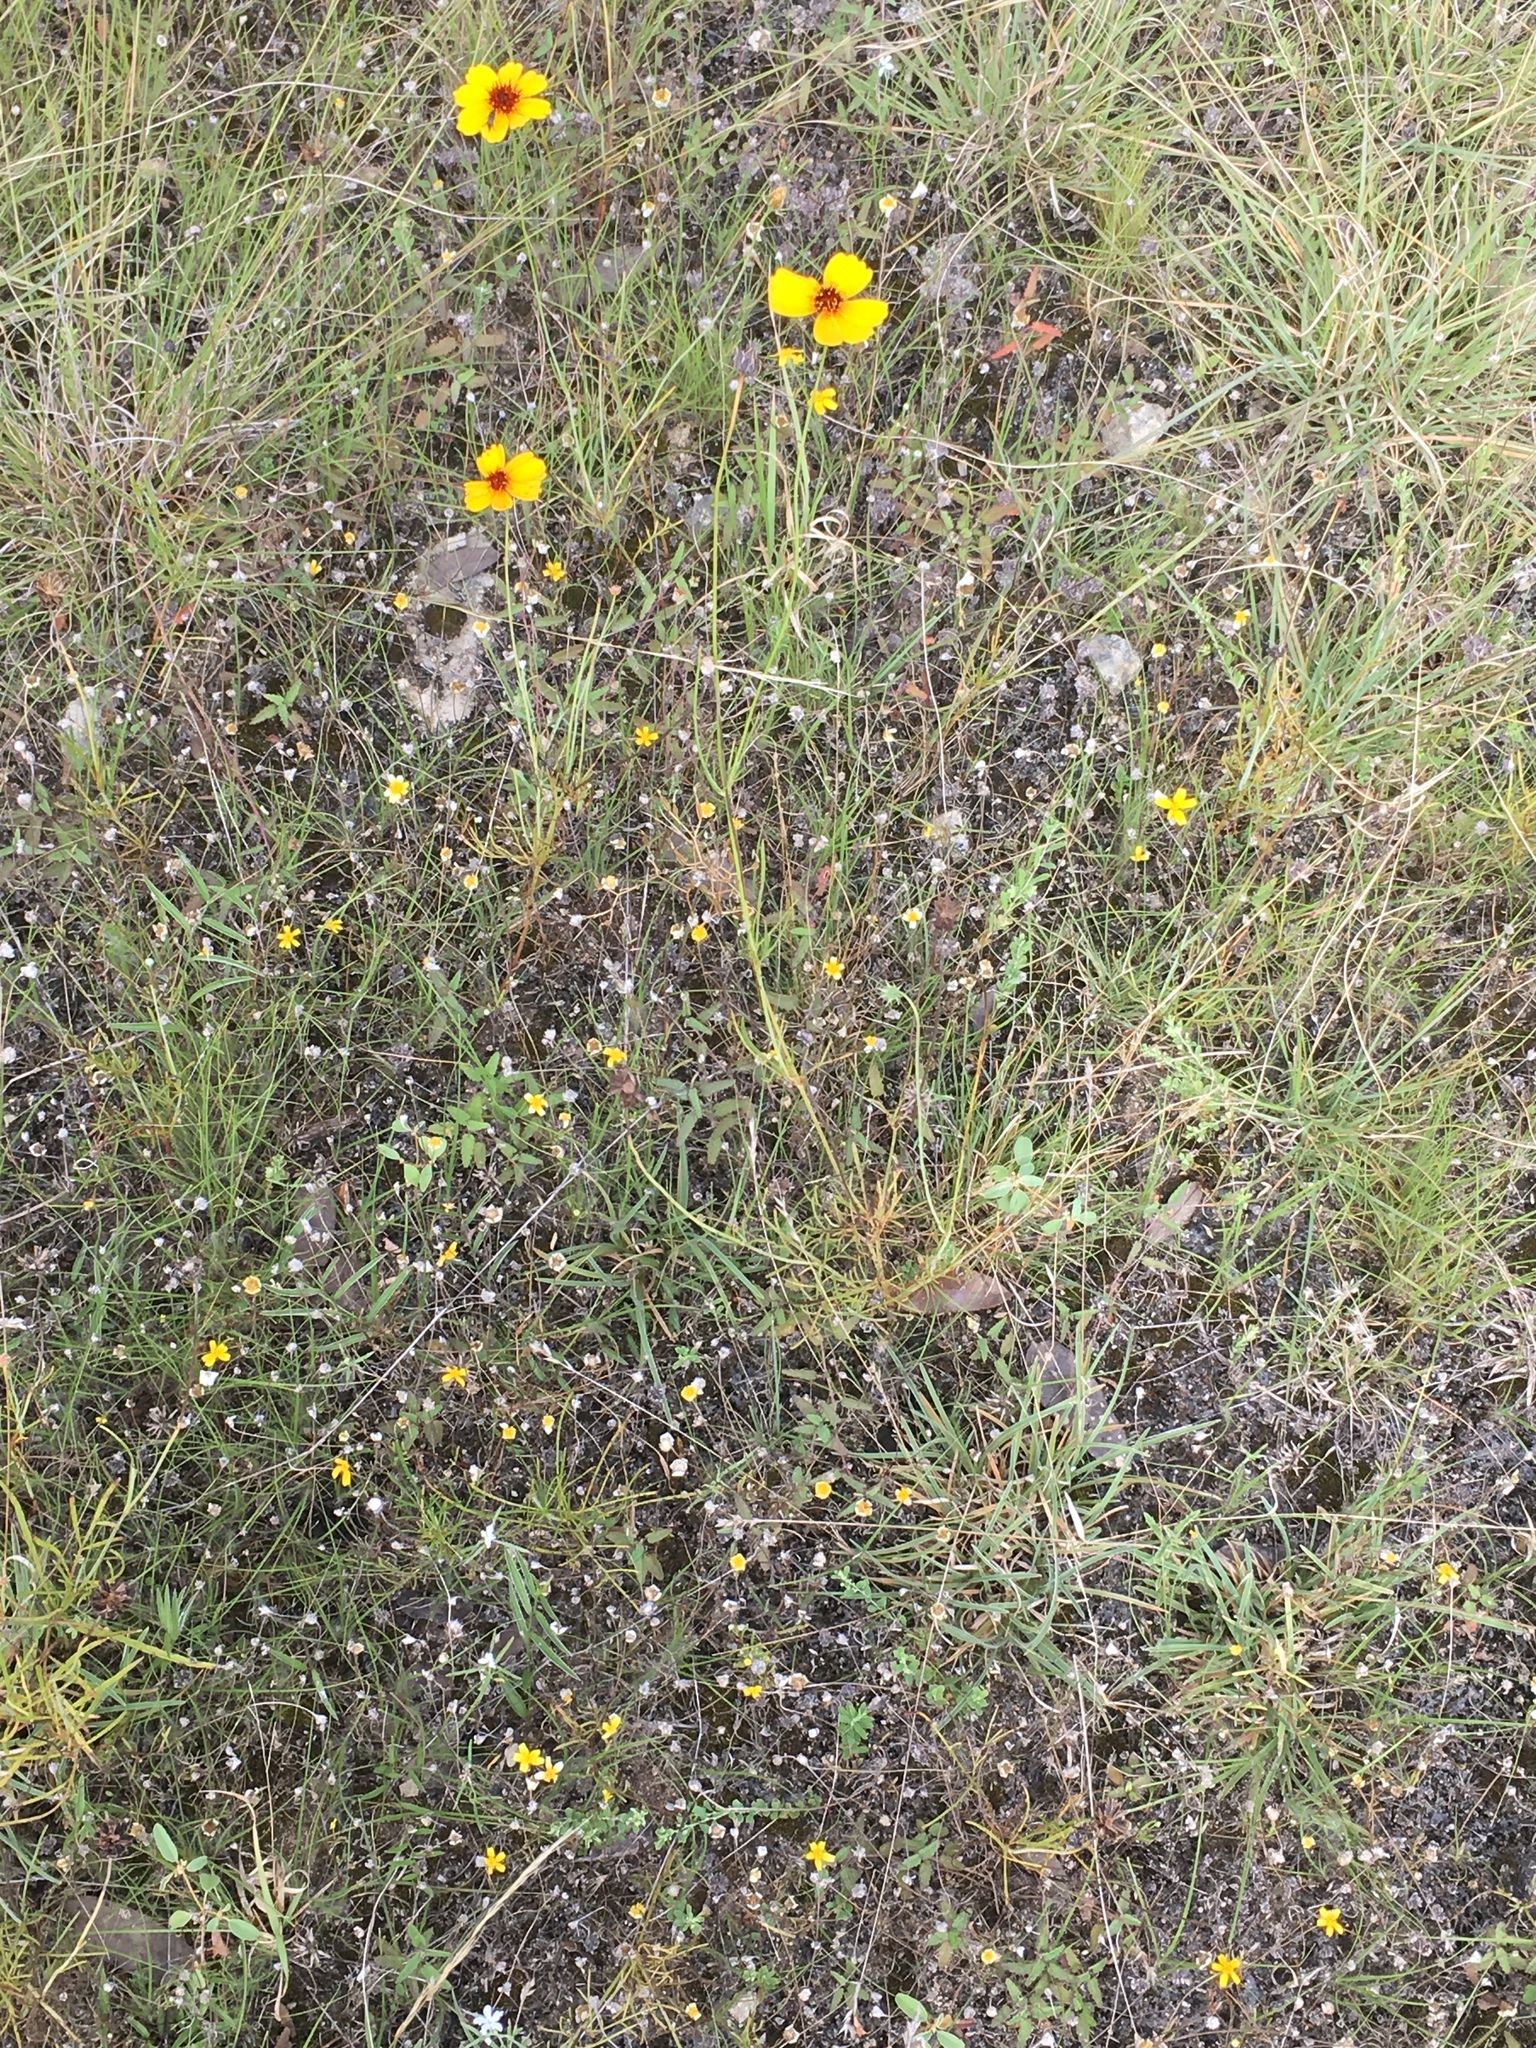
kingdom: Plantae
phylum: Tracheophyta
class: Magnoliopsida
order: Asterales
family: Asteraceae
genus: Thelesperma
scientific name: Thelesperma filifolium
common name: Stiff greenthread
